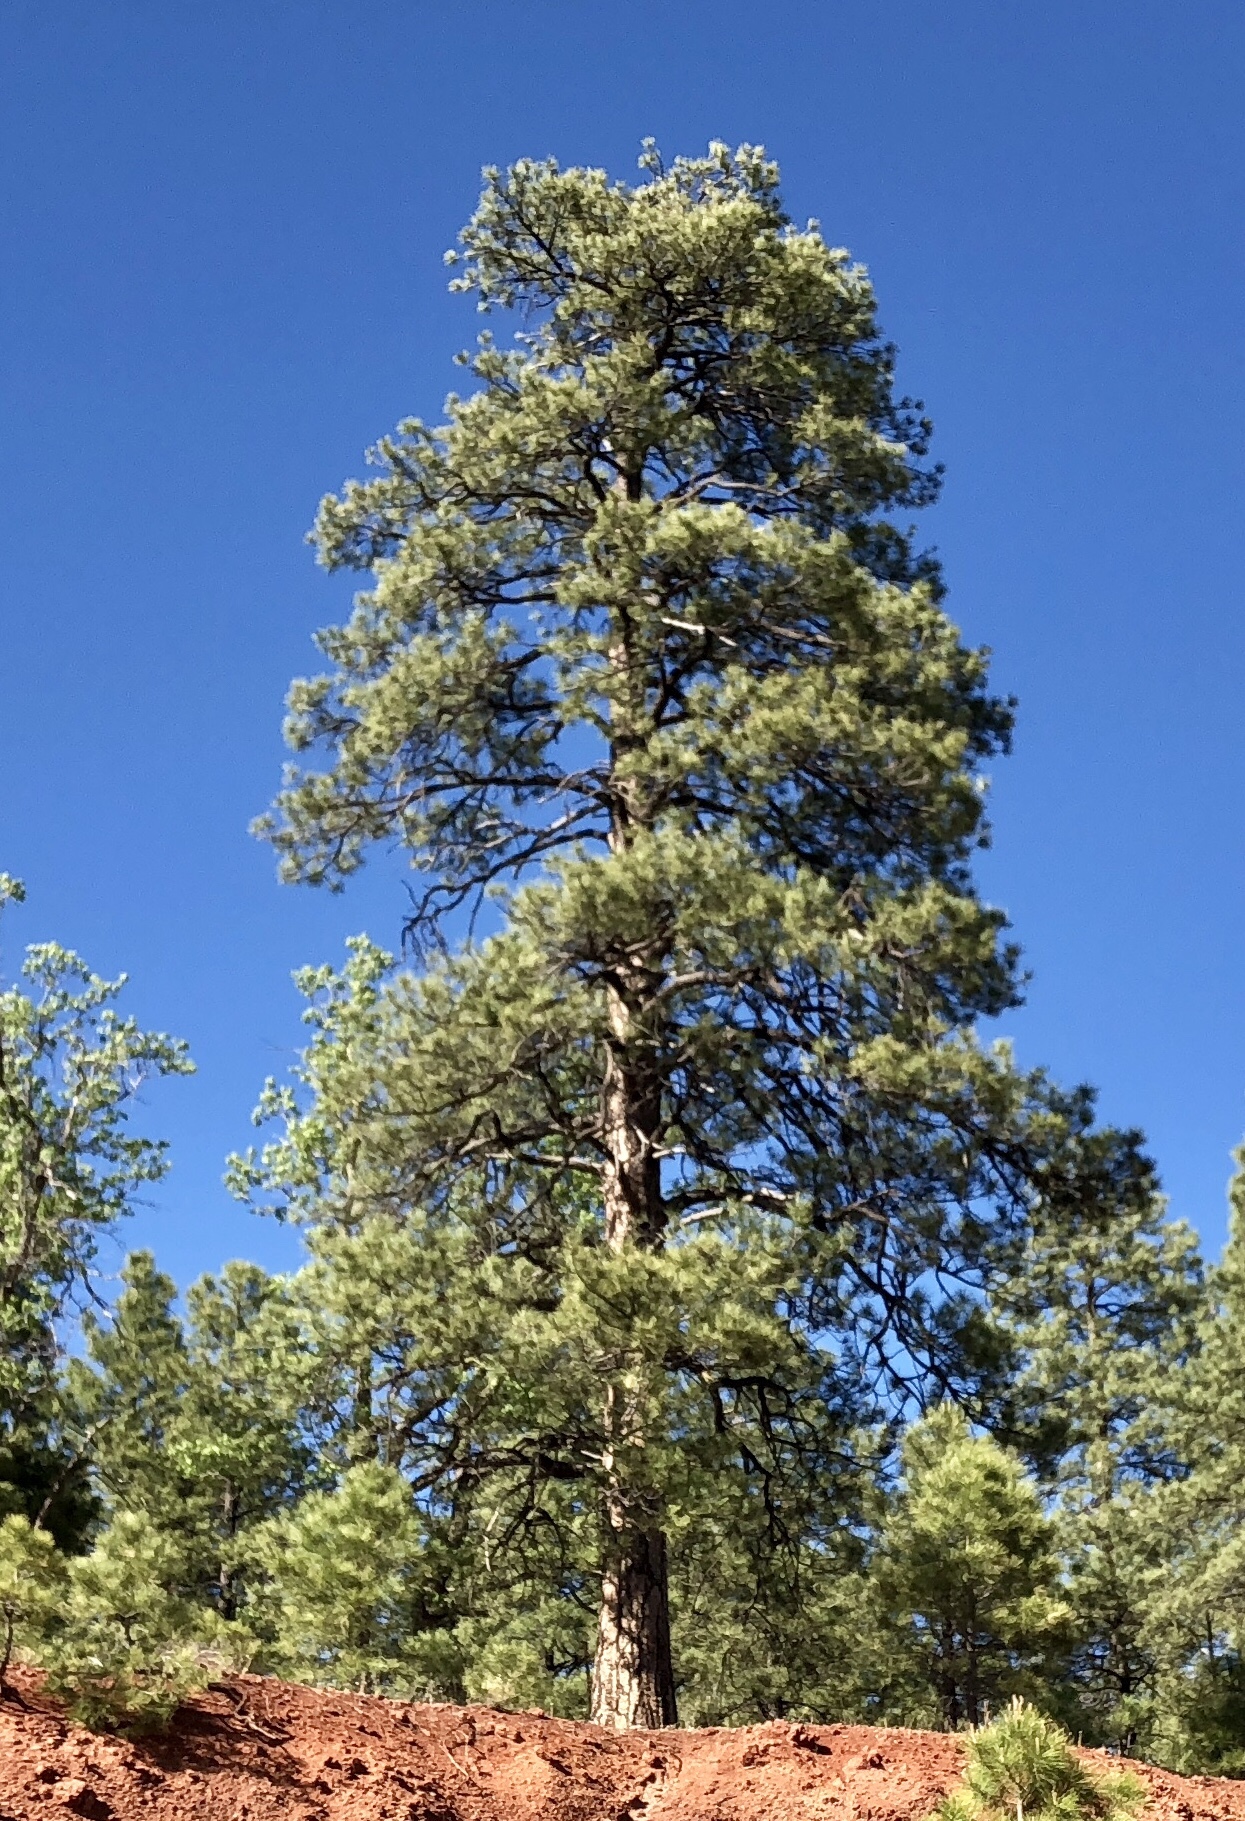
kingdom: Plantae
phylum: Tracheophyta
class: Pinopsida
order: Pinales
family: Pinaceae
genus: Pinus
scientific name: Pinus ponderosa
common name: Western yellow-pine
